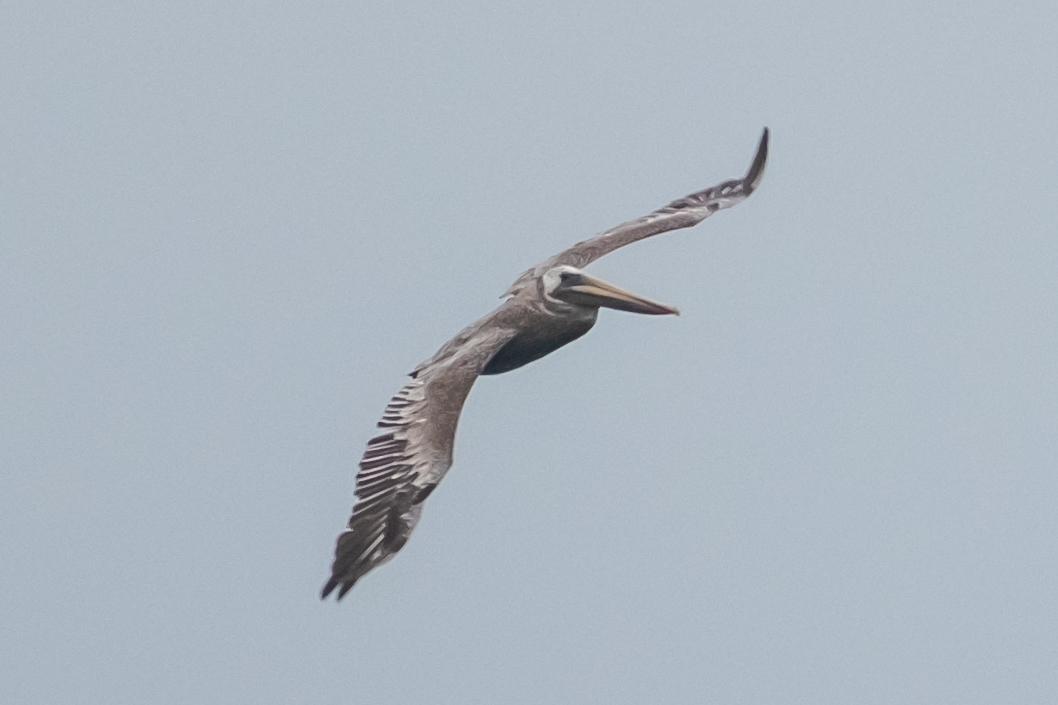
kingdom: Animalia
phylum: Chordata
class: Aves
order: Pelecaniformes
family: Pelecanidae
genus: Pelecanus
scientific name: Pelecanus occidentalis
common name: Brown pelican
